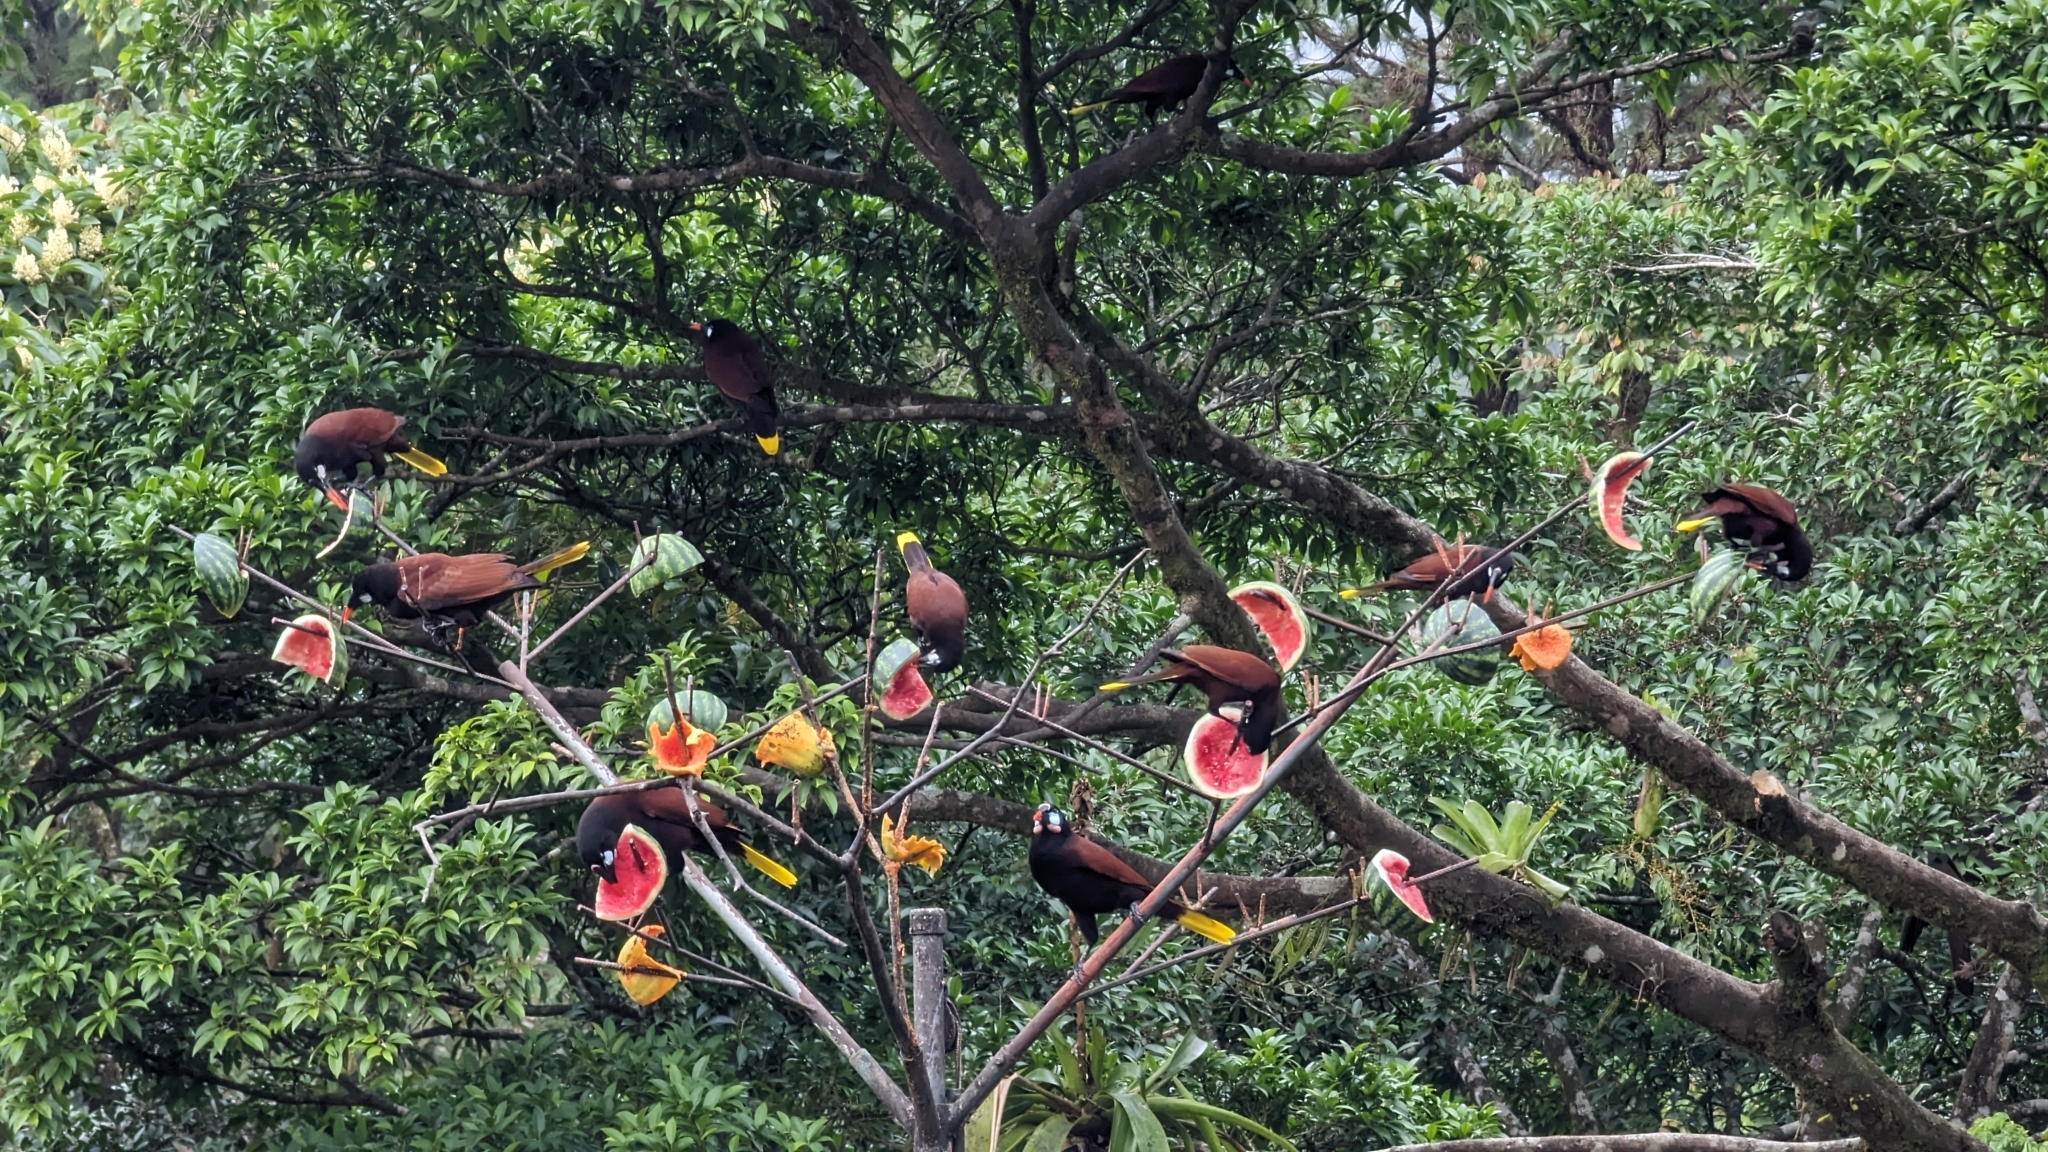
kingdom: Animalia
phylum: Chordata
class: Aves
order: Passeriformes
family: Icteridae
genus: Psarocolius
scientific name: Psarocolius montezuma
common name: Montezuma oropendola
